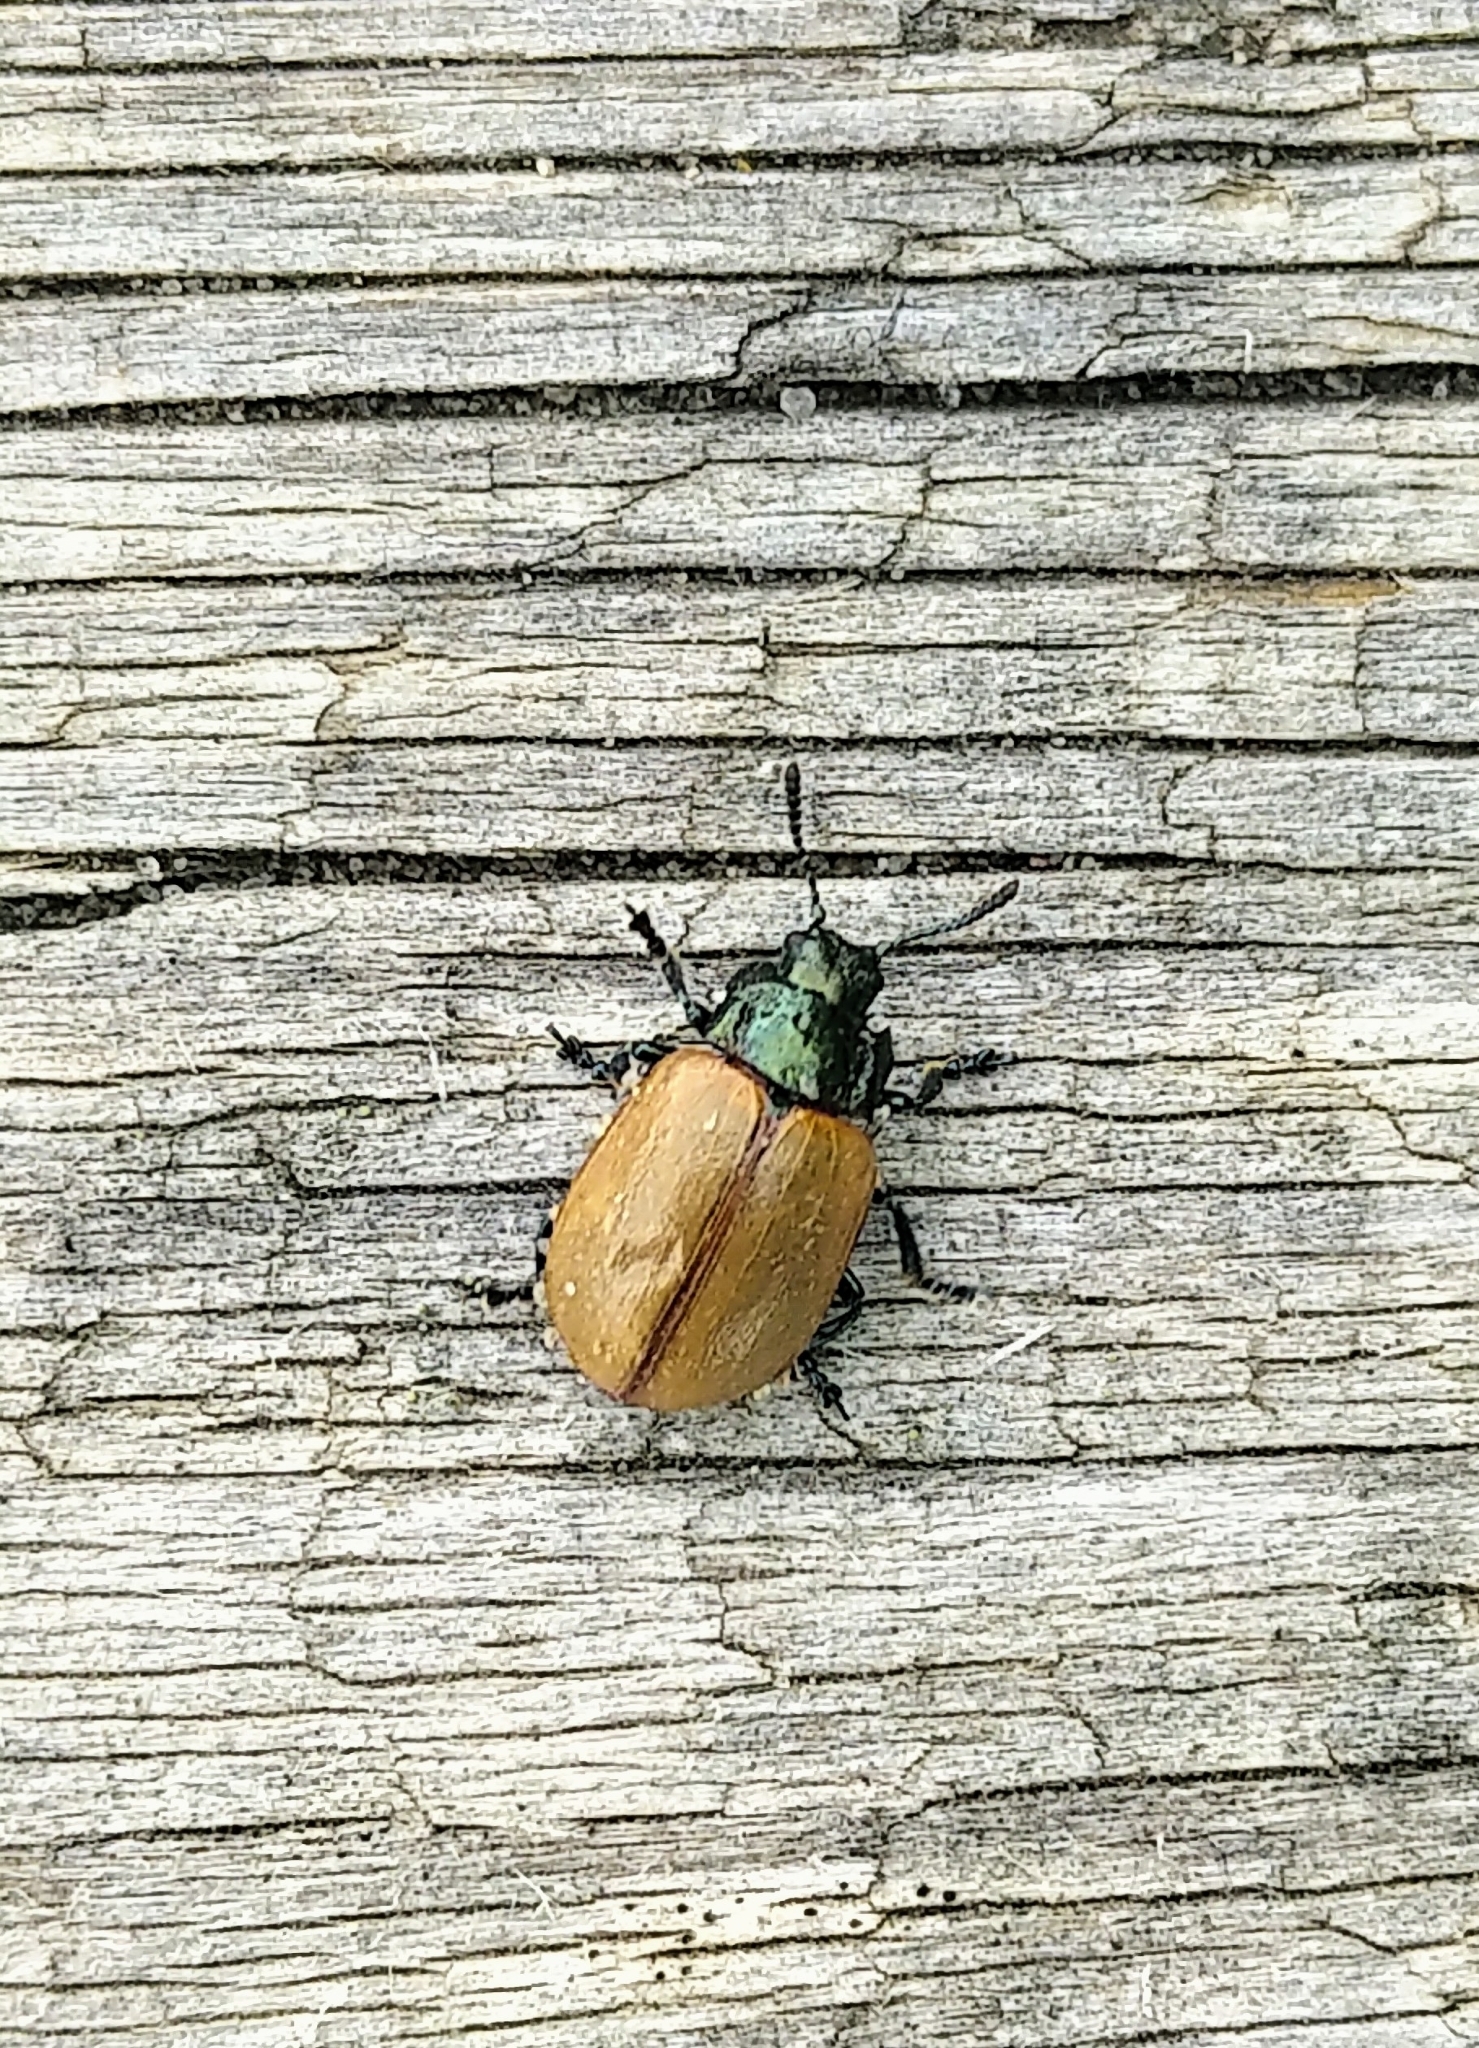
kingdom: Animalia
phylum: Arthropoda
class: Insecta
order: Coleoptera
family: Chrysomelidae
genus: Chrysomela
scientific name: Chrysomela crotchi
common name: Leaf beetle
